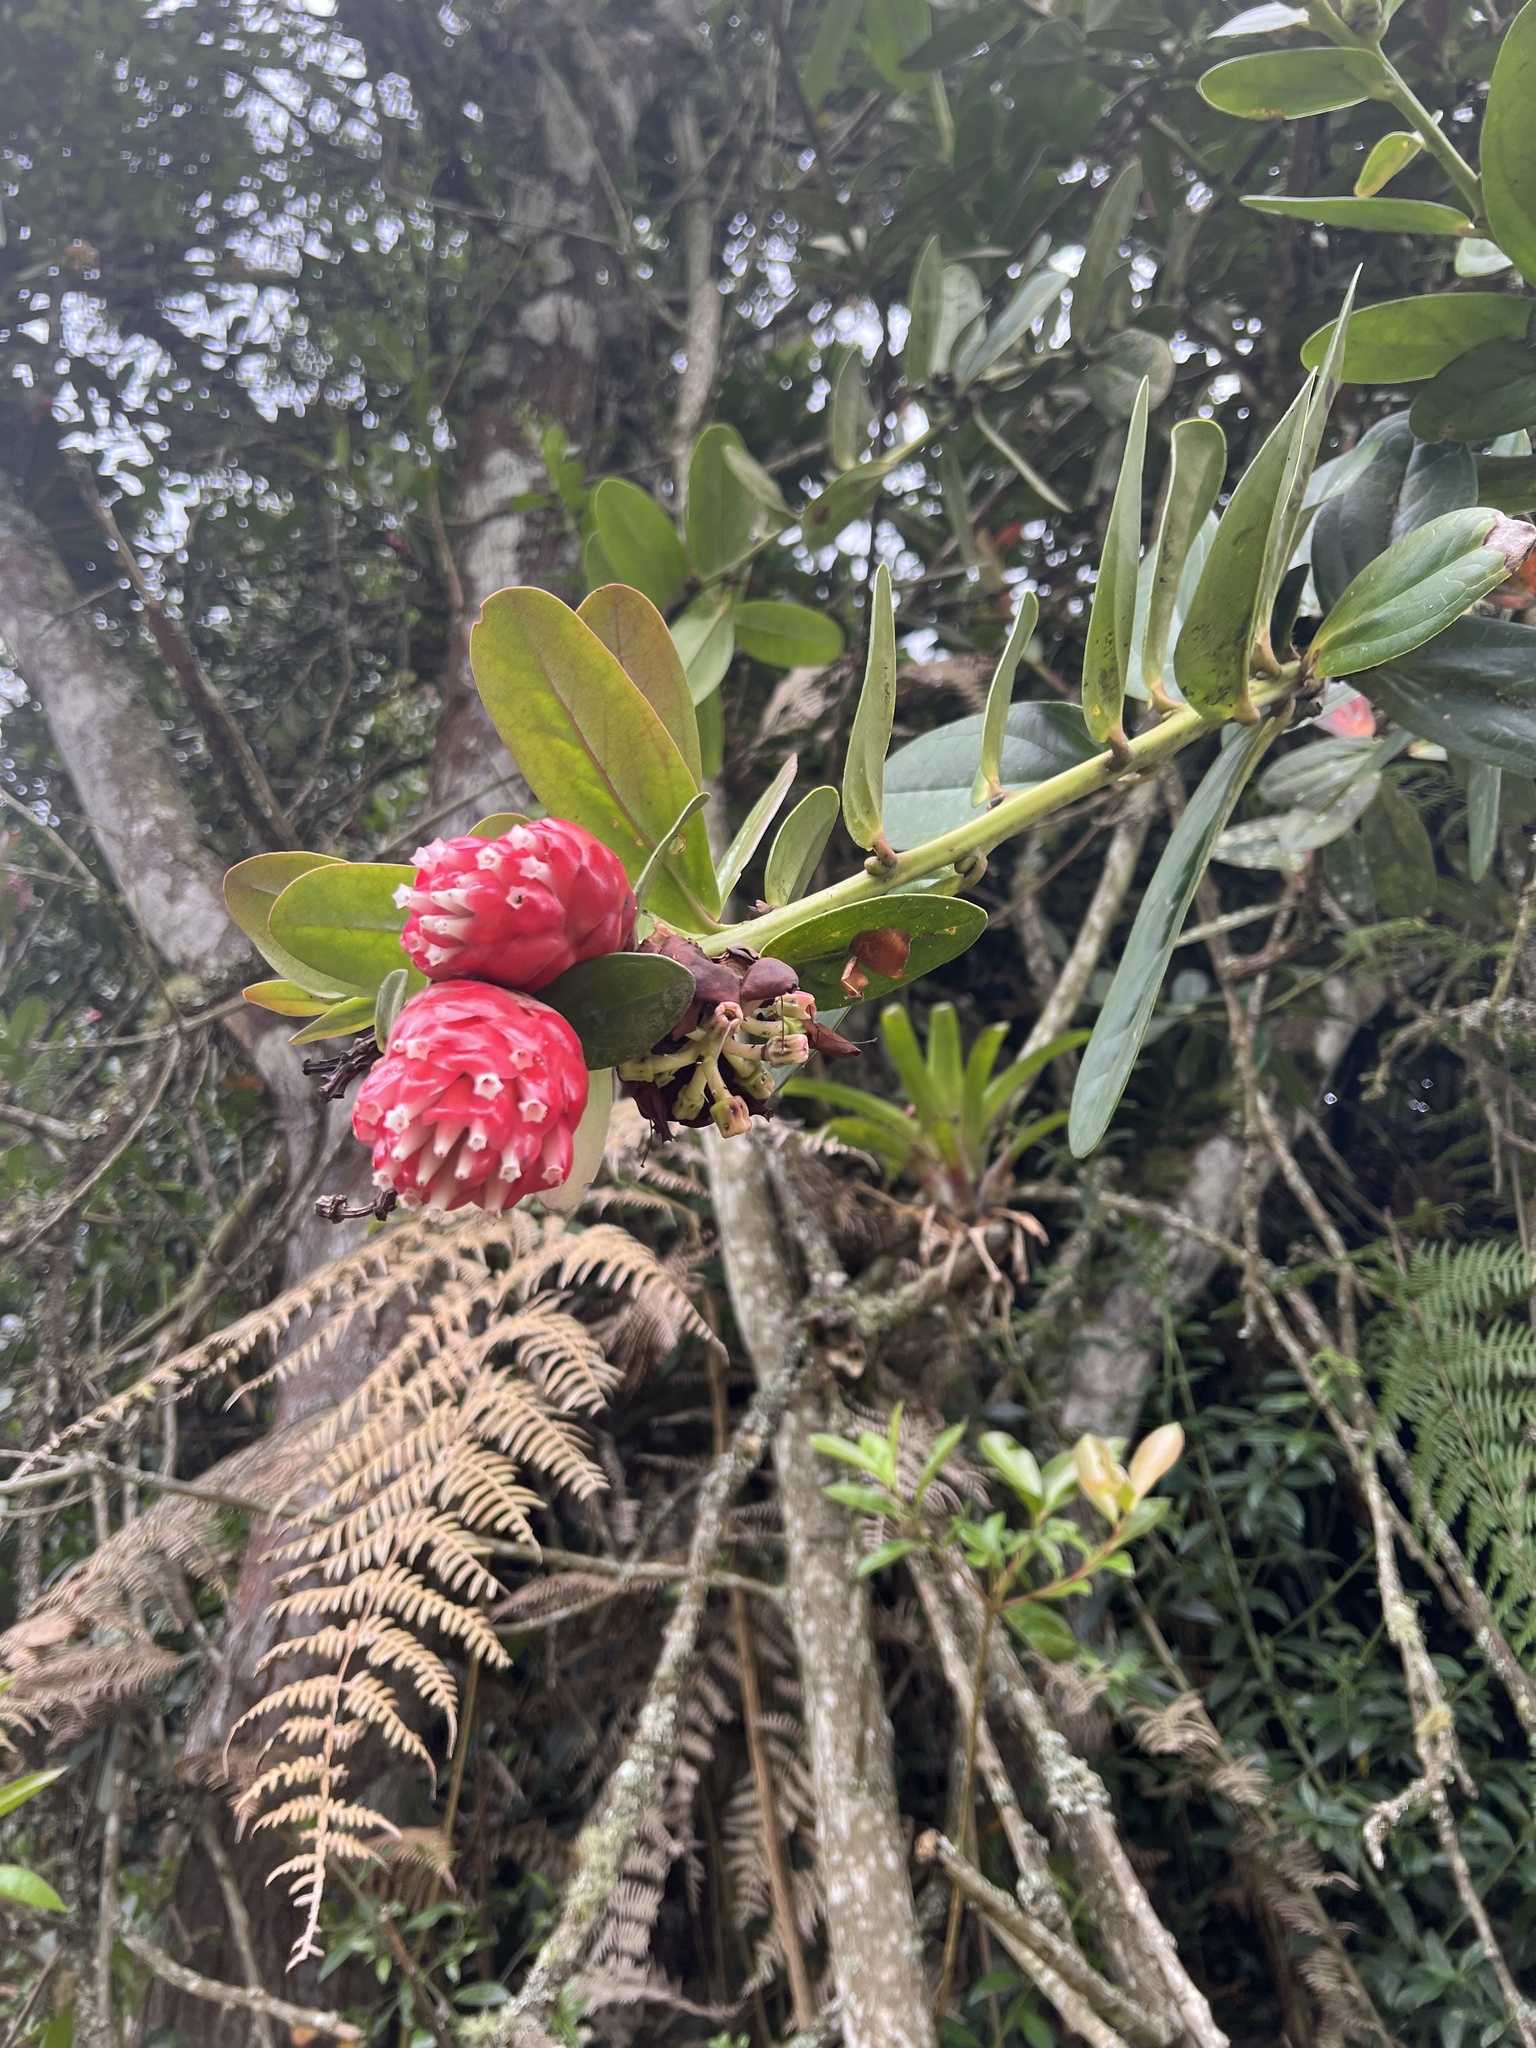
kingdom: Plantae
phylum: Tracheophyta
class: Magnoliopsida
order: Ericales
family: Ericaceae
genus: Cavendishia
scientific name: Cavendishia nitida
